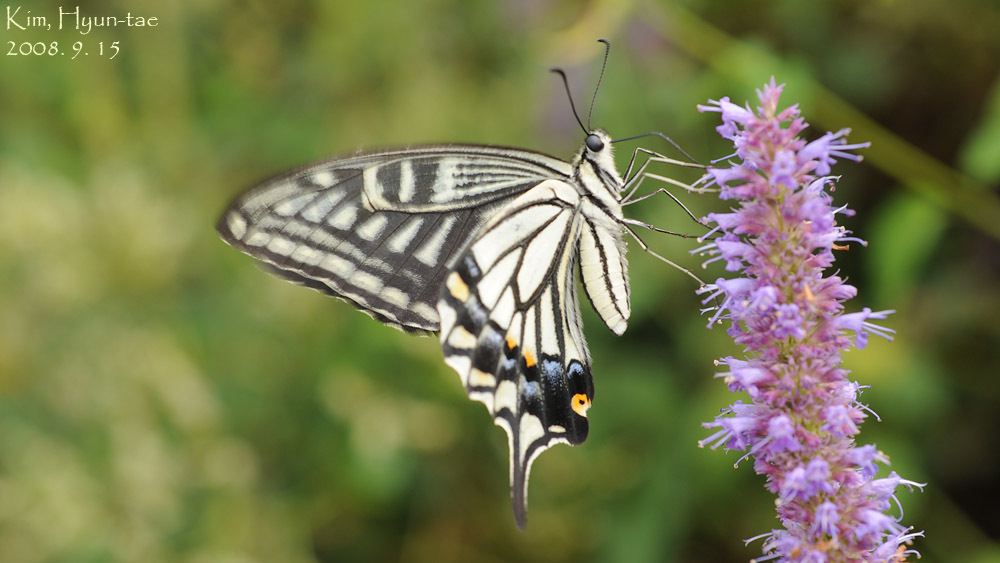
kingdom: Animalia
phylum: Arthropoda
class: Insecta
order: Lepidoptera
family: Papilionidae
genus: Papilio
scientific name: Papilio xuthus
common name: Asian swallowtail
